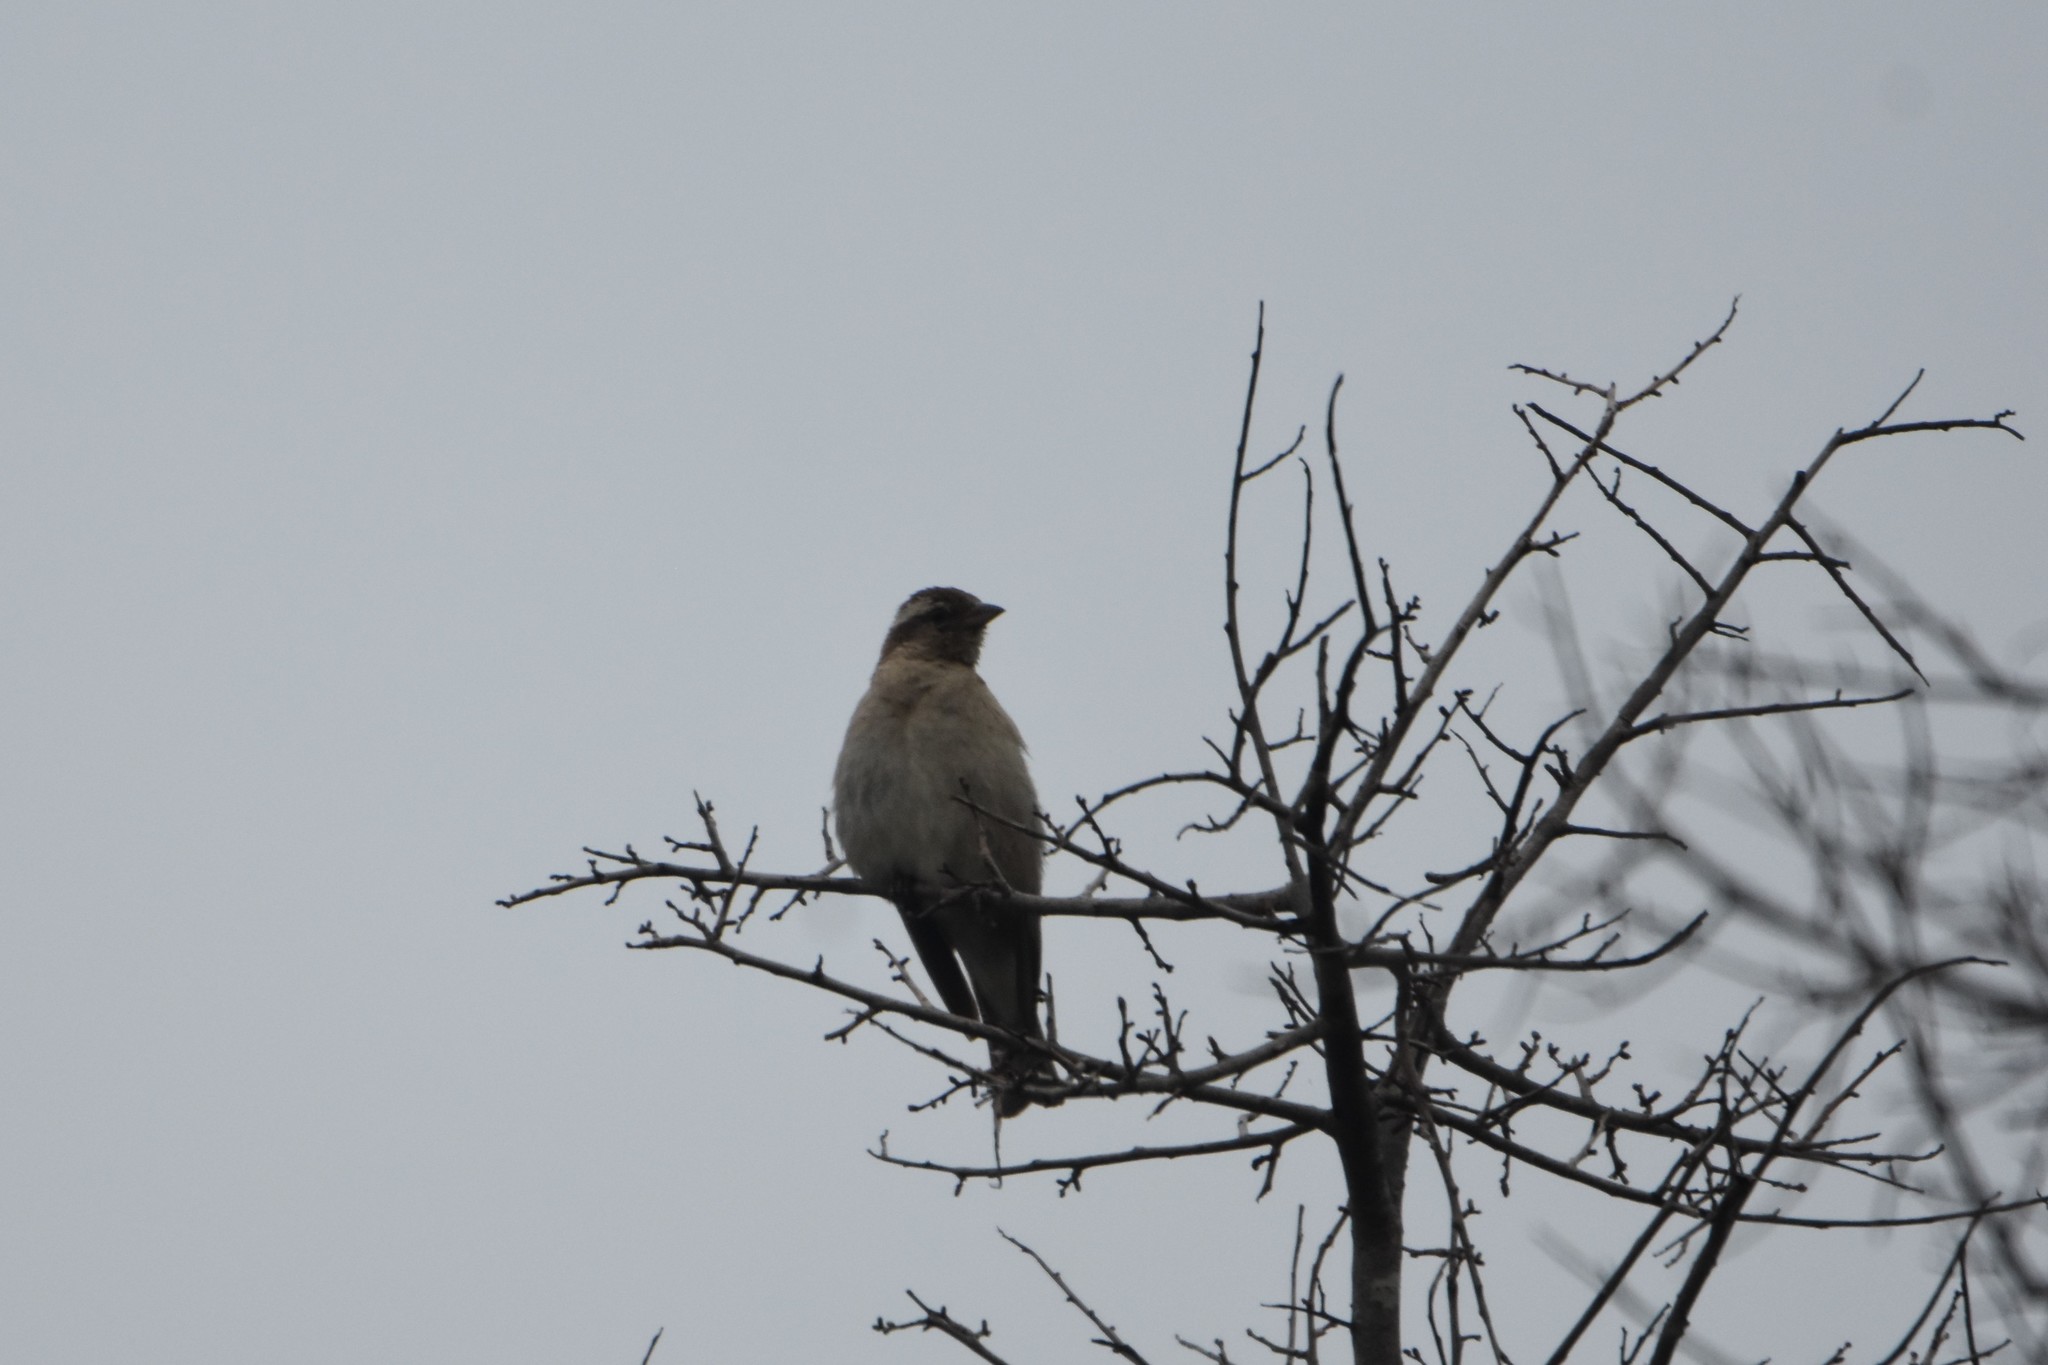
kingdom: Animalia
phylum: Chordata
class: Aves
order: Passeriformes
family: Passeridae
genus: Gymnoris
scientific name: Gymnoris superciliaris
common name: Yellow-throated petronia
